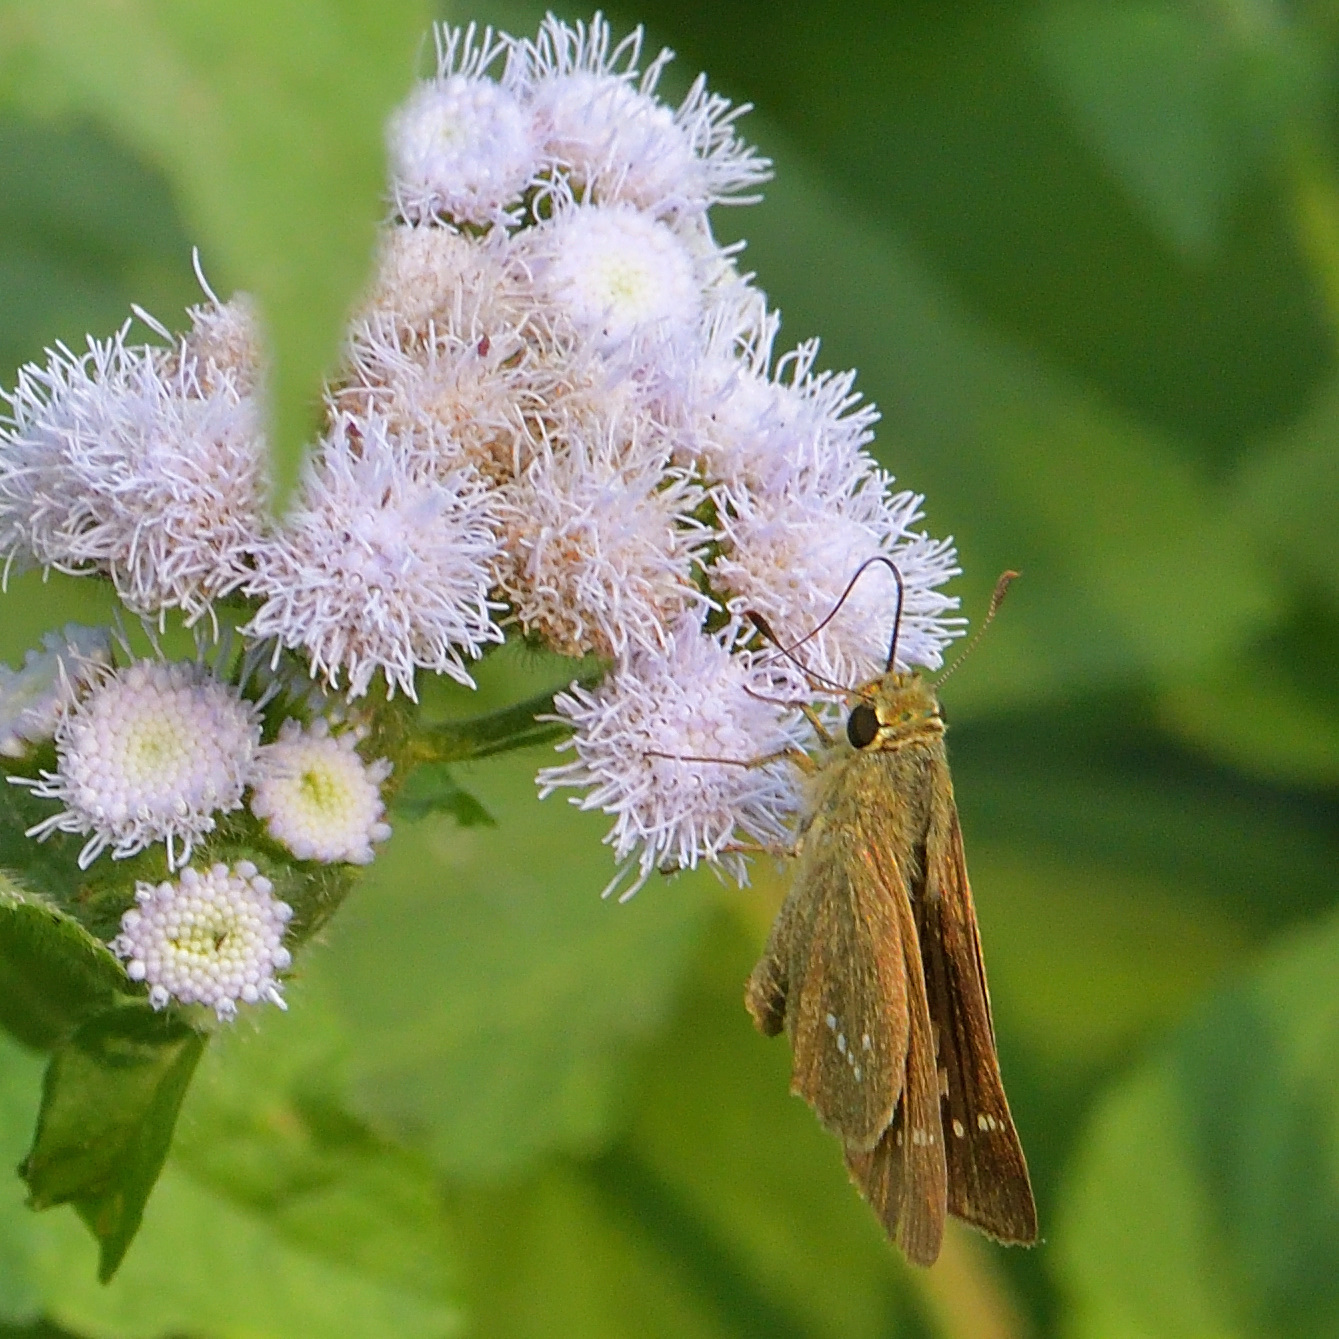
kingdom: Animalia
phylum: Arthropoda
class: Insecta
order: Lepidoptera
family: Hesperiidae
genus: Parnara
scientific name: Parnara naso
